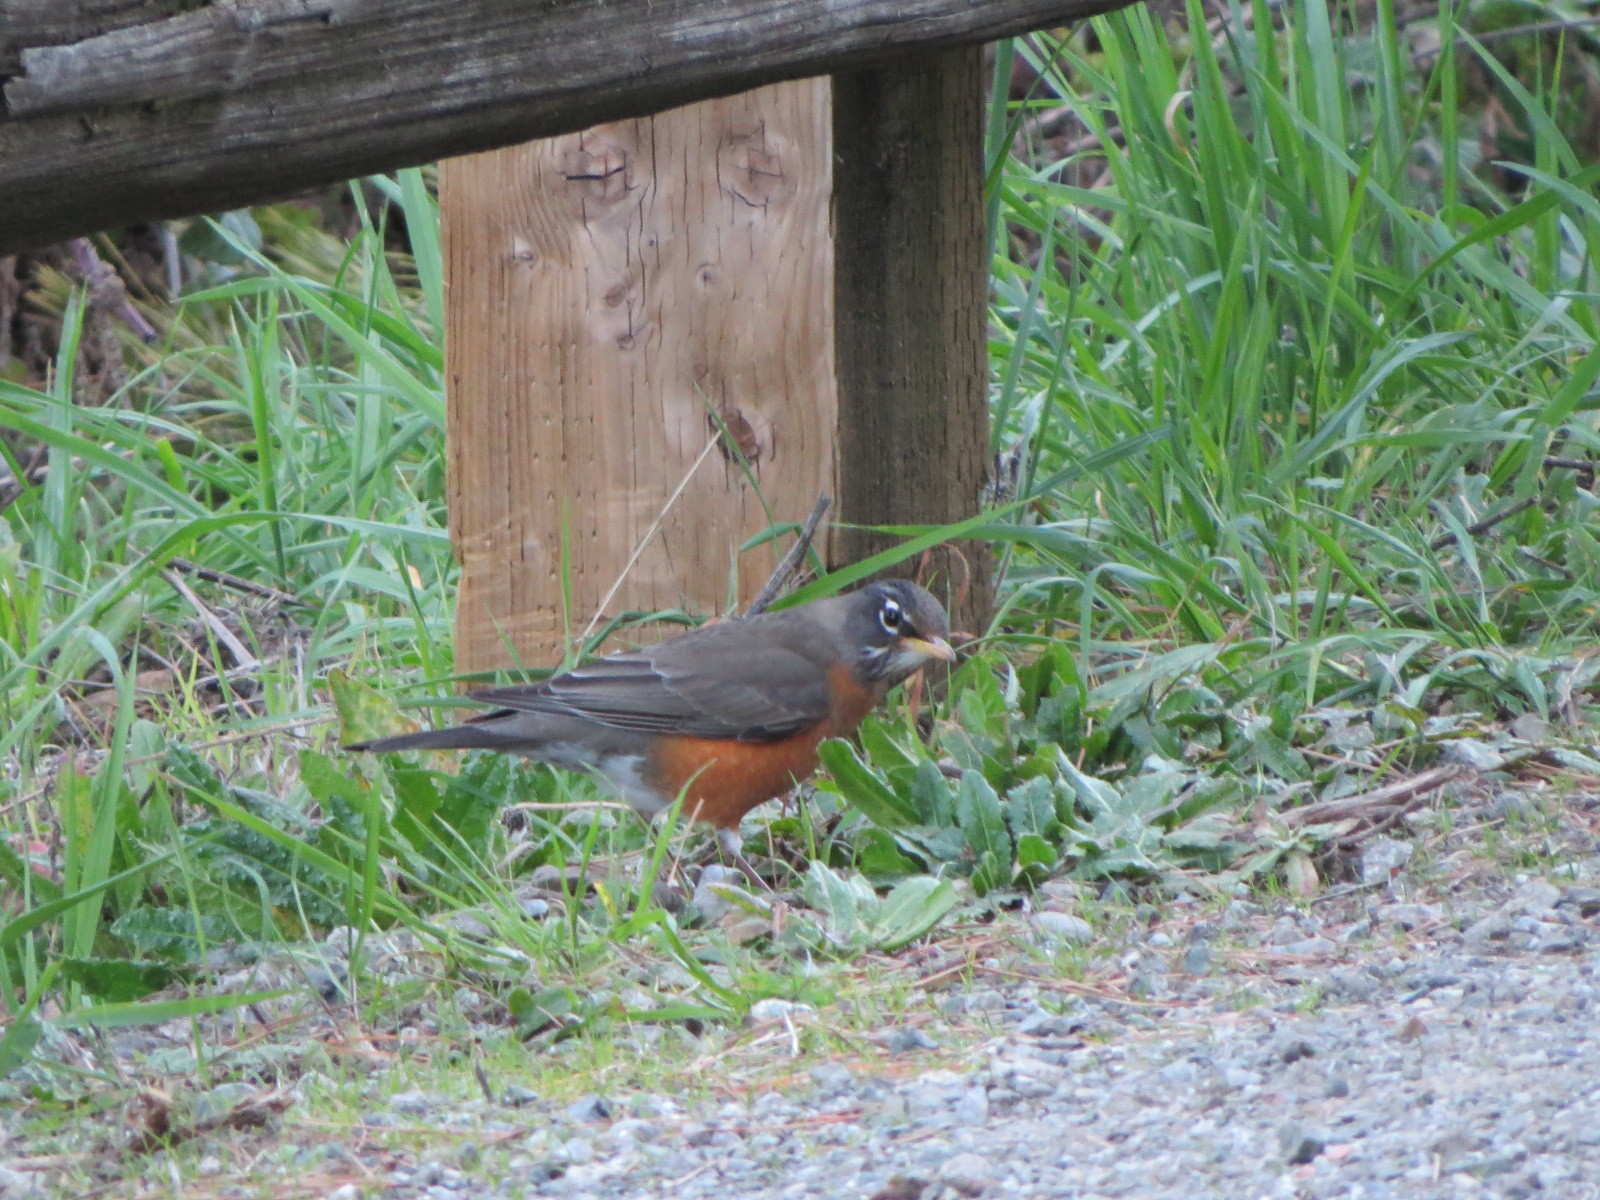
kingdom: Animalia
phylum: Chordata
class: Aves
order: Passeriformes
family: Turdidae
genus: Turdus
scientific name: Turdus migratorius
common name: American robin
